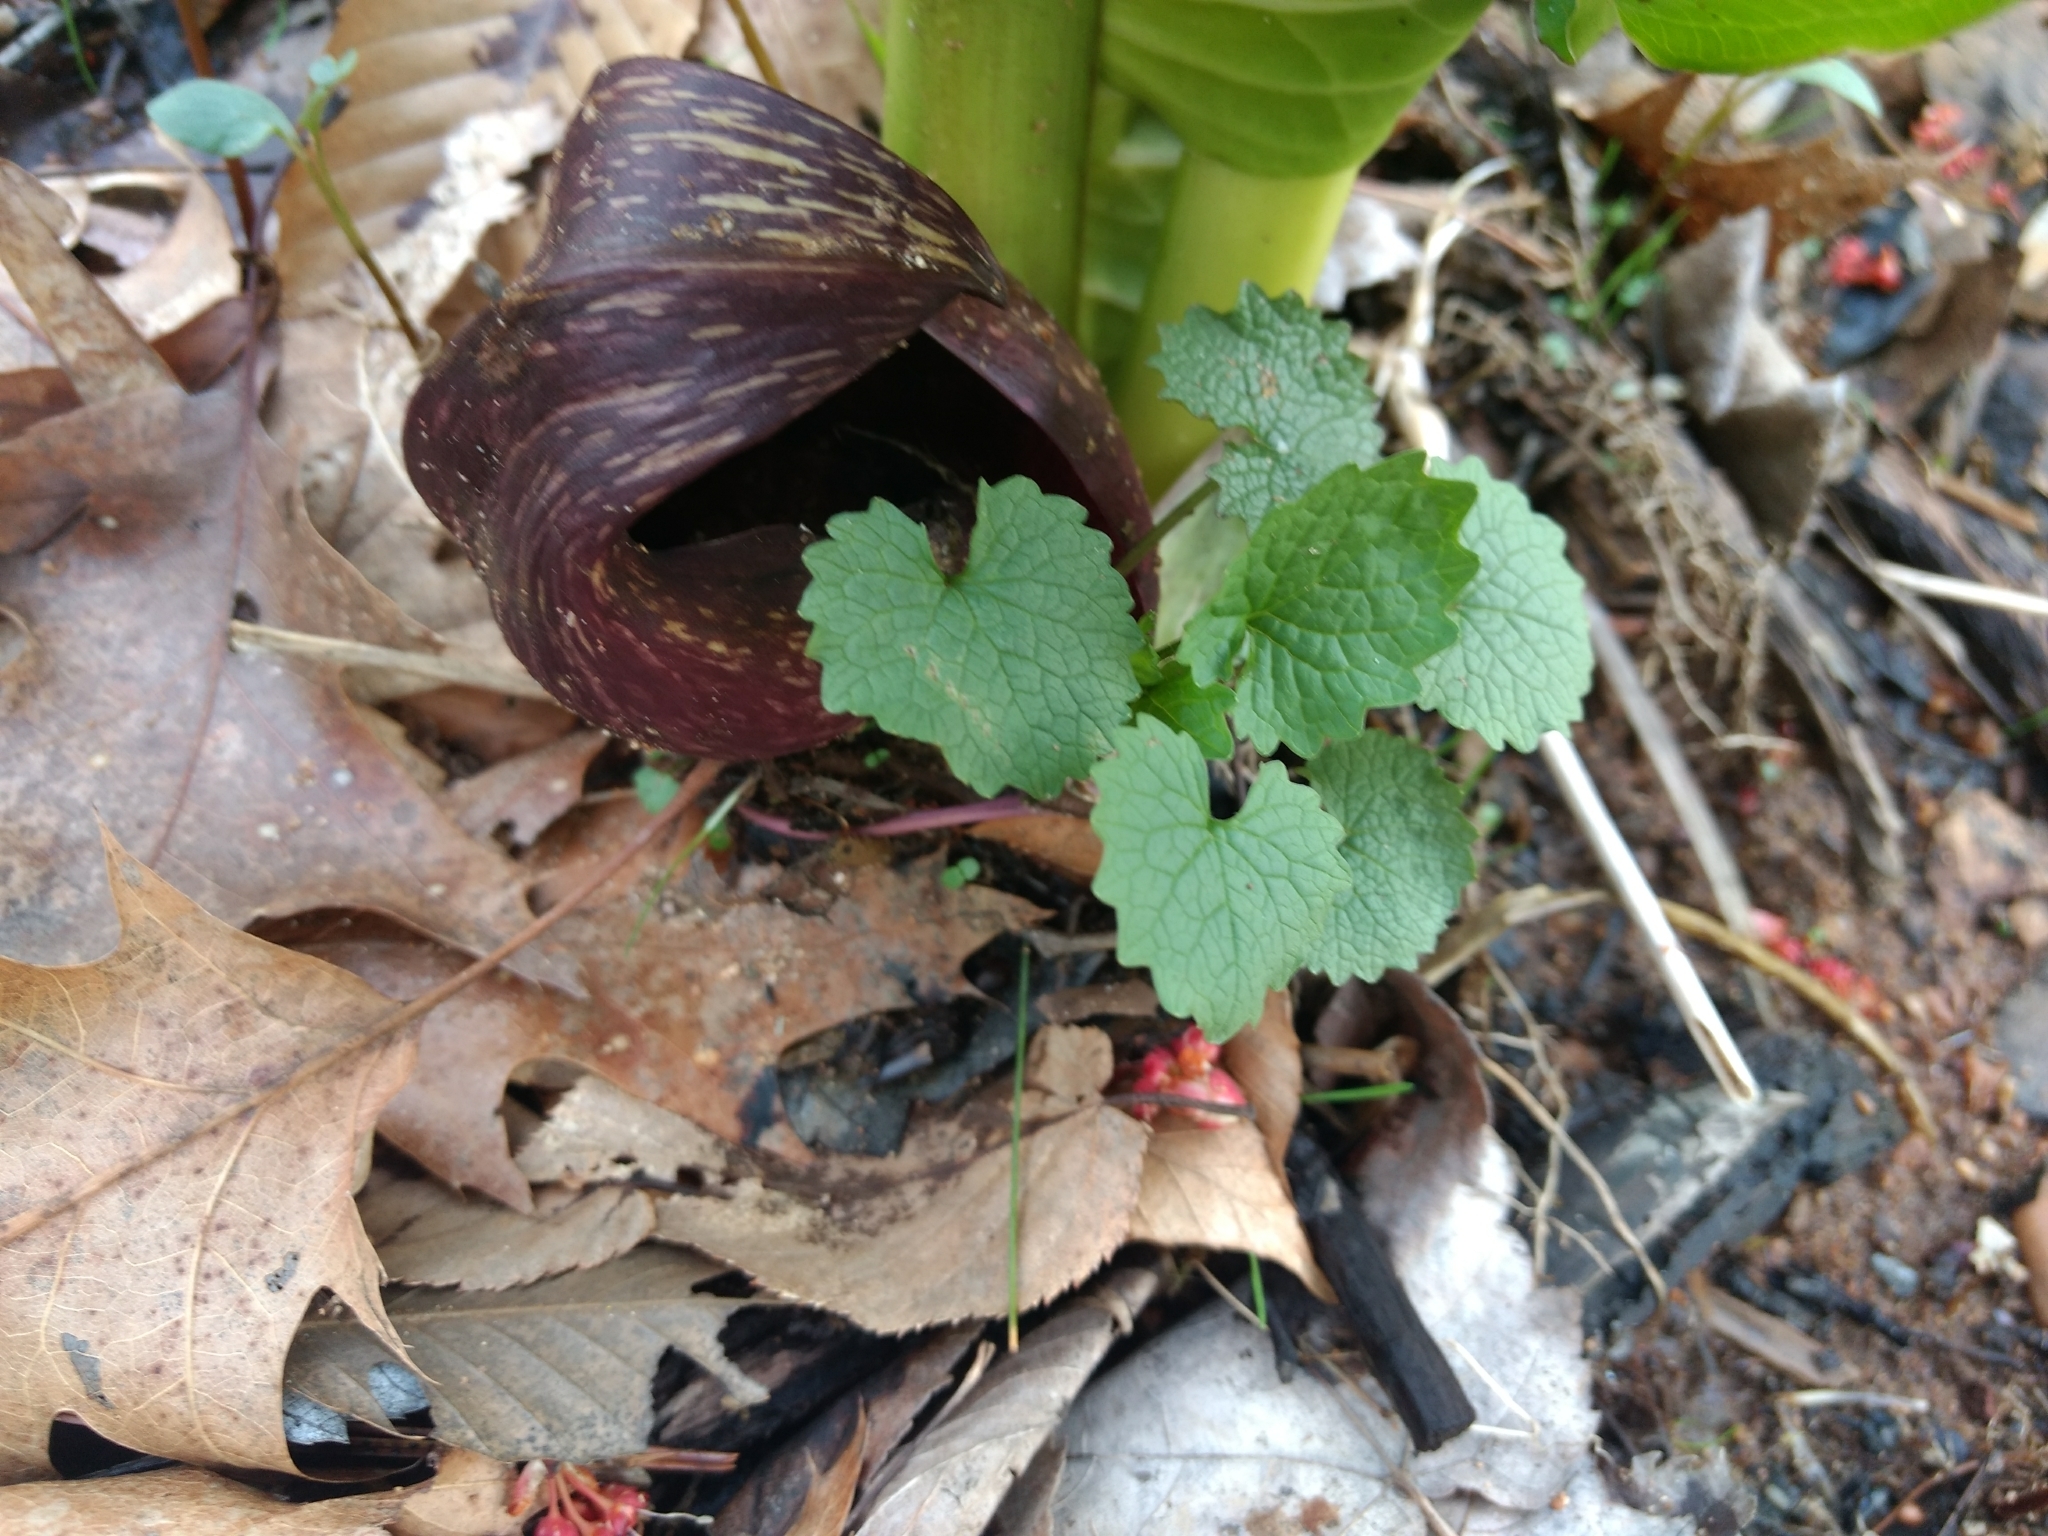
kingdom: Plantae
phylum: Tracheophyta
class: Magnoliopsida
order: Brassicales
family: Brassicaceae
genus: Alliaria
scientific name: Alliaria petiolata
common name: Garlic mustard
